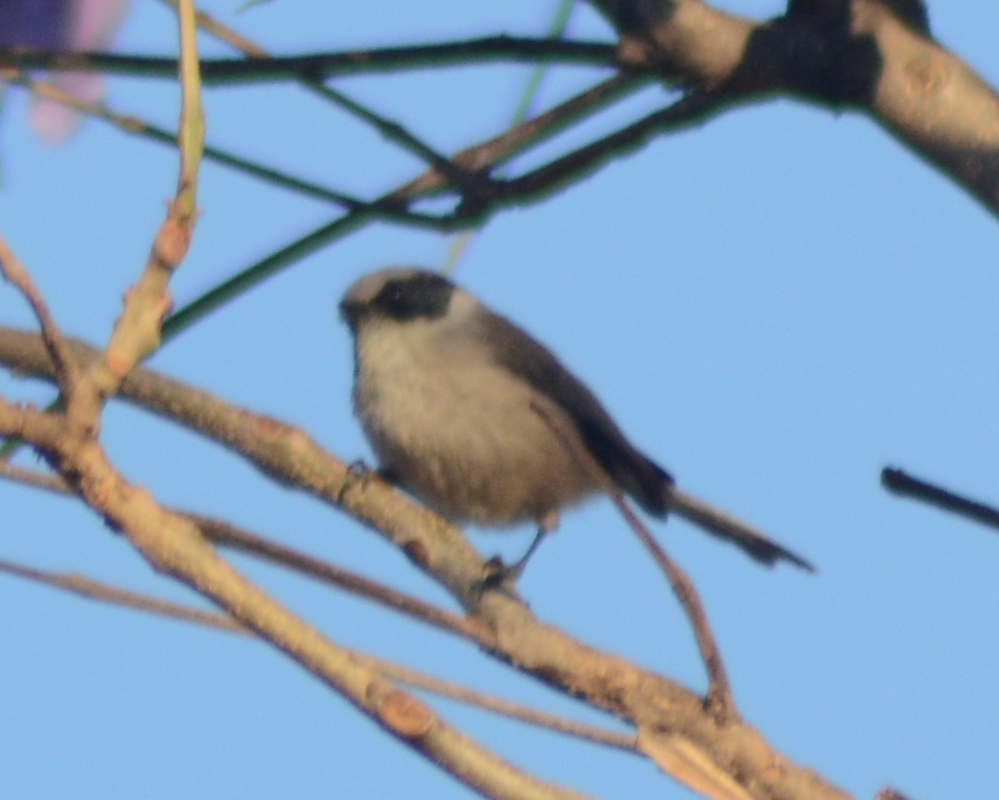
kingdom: Animalia
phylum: Chordata
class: Aves
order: Passeriformes
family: Aegithalidae
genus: Psaltriparus
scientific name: Psaltriparus minimus
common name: American bushtit
